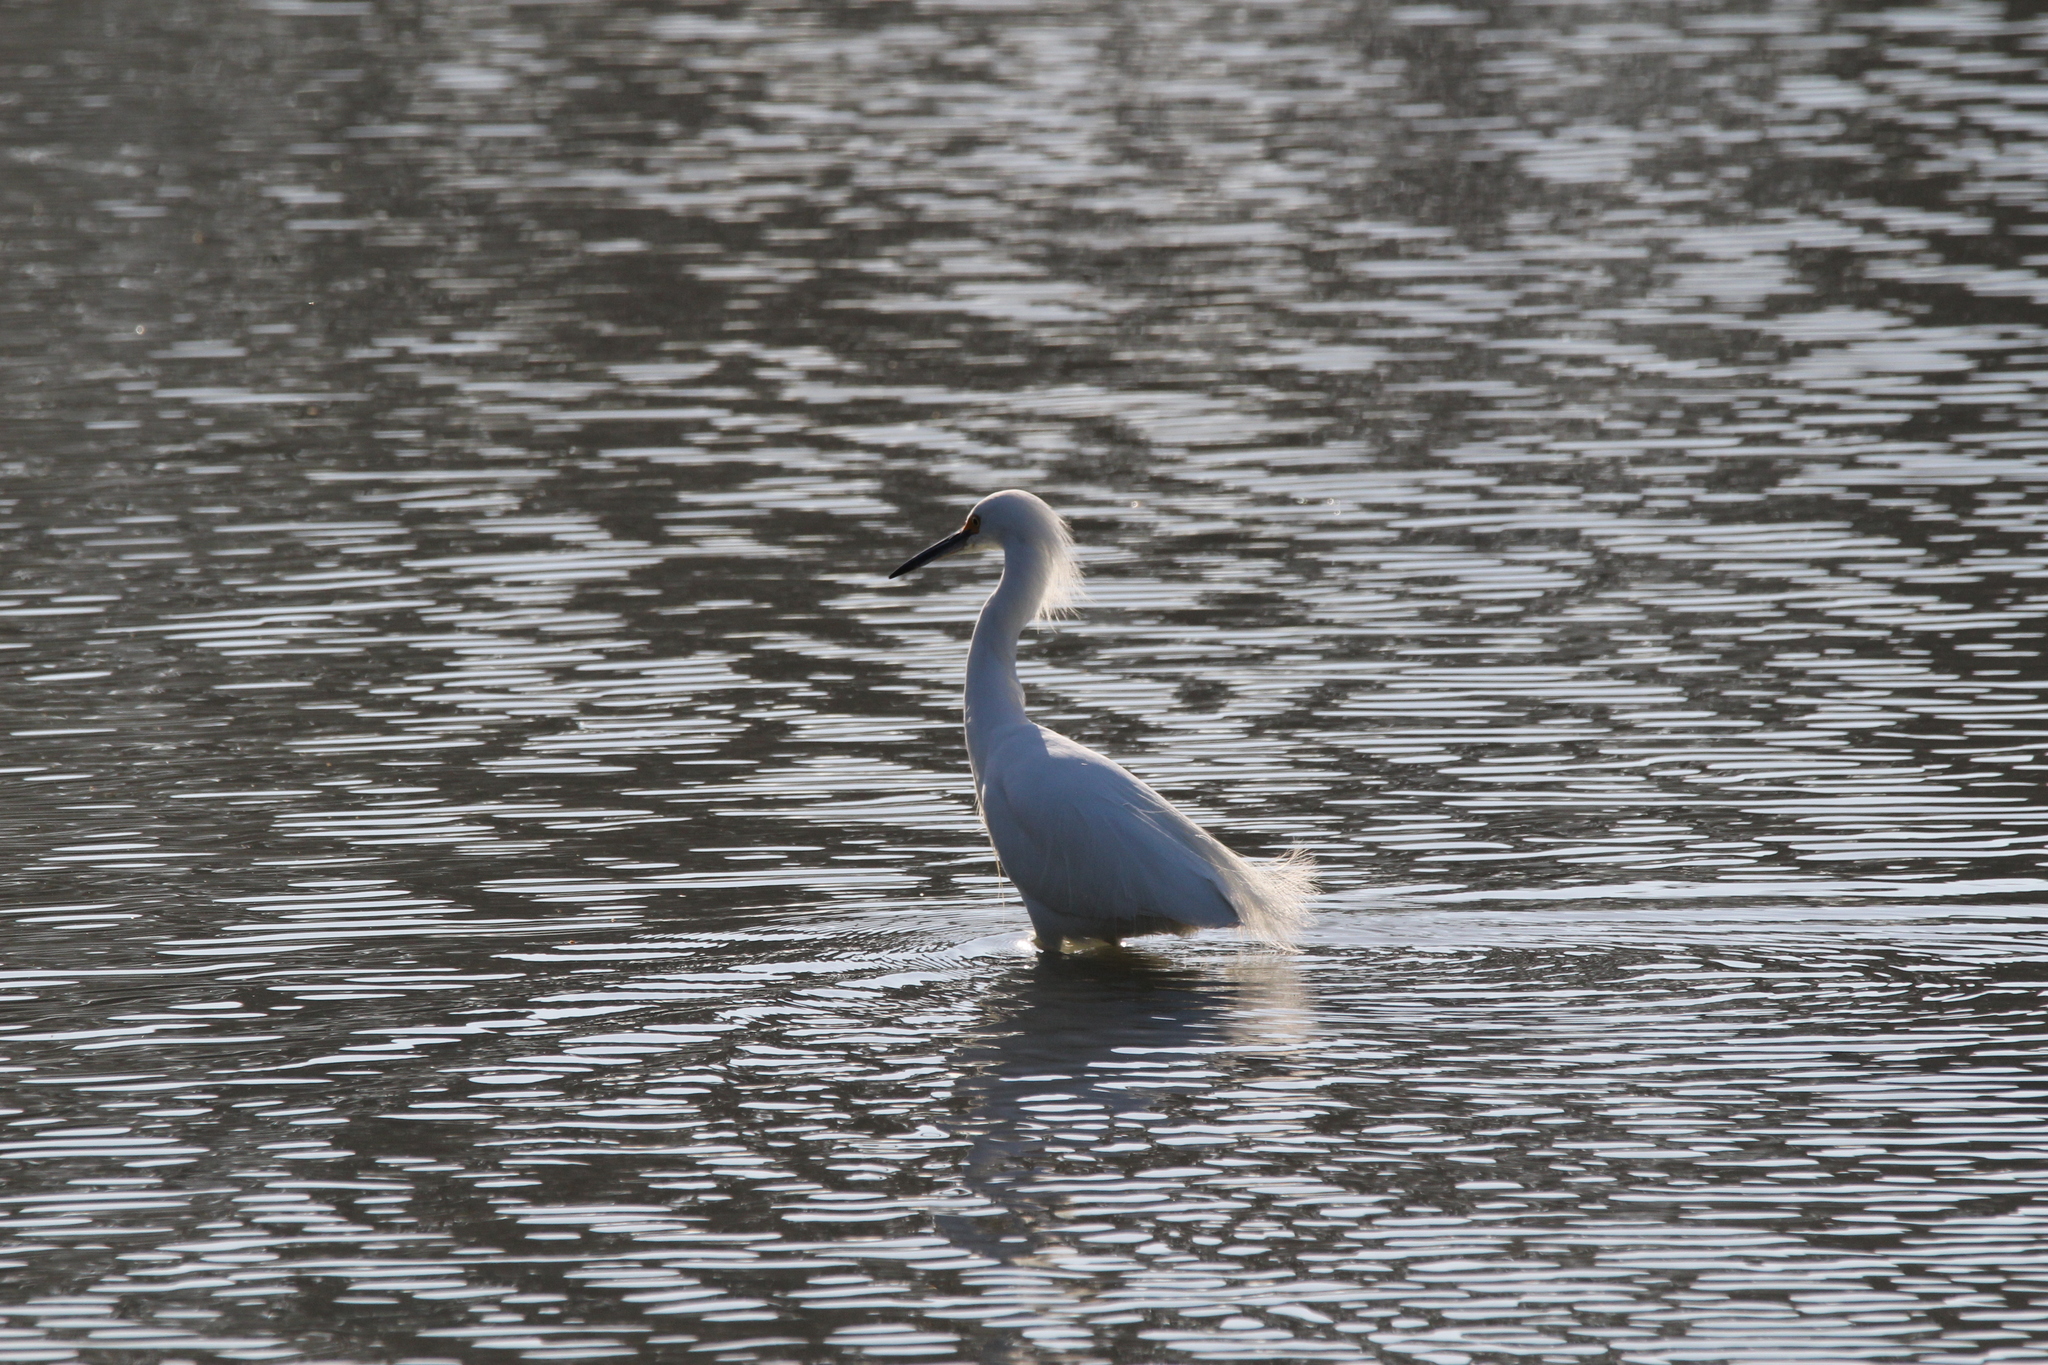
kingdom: Animalia
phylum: Chordata
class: Aves
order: Pelecaniformes
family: Ardeidae
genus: Egretta
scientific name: Egretta thula
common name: Snowy egret
